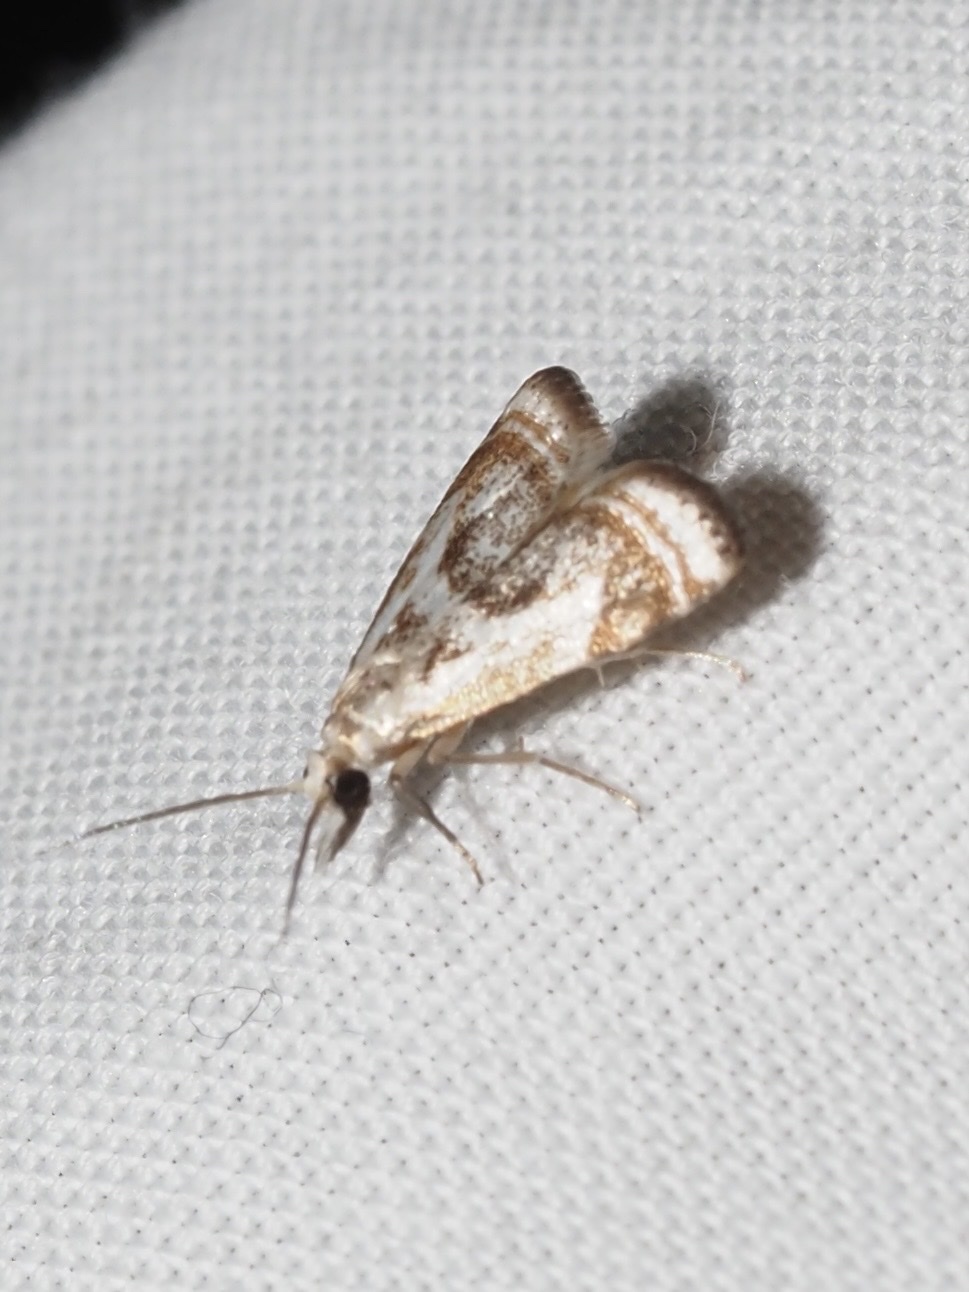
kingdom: Animalia
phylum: Arthropoda
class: Insecta
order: Lepidoptera
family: Crambidae
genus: Microcrambus
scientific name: Microcrambus elegans
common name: Elegant grass-veneer
